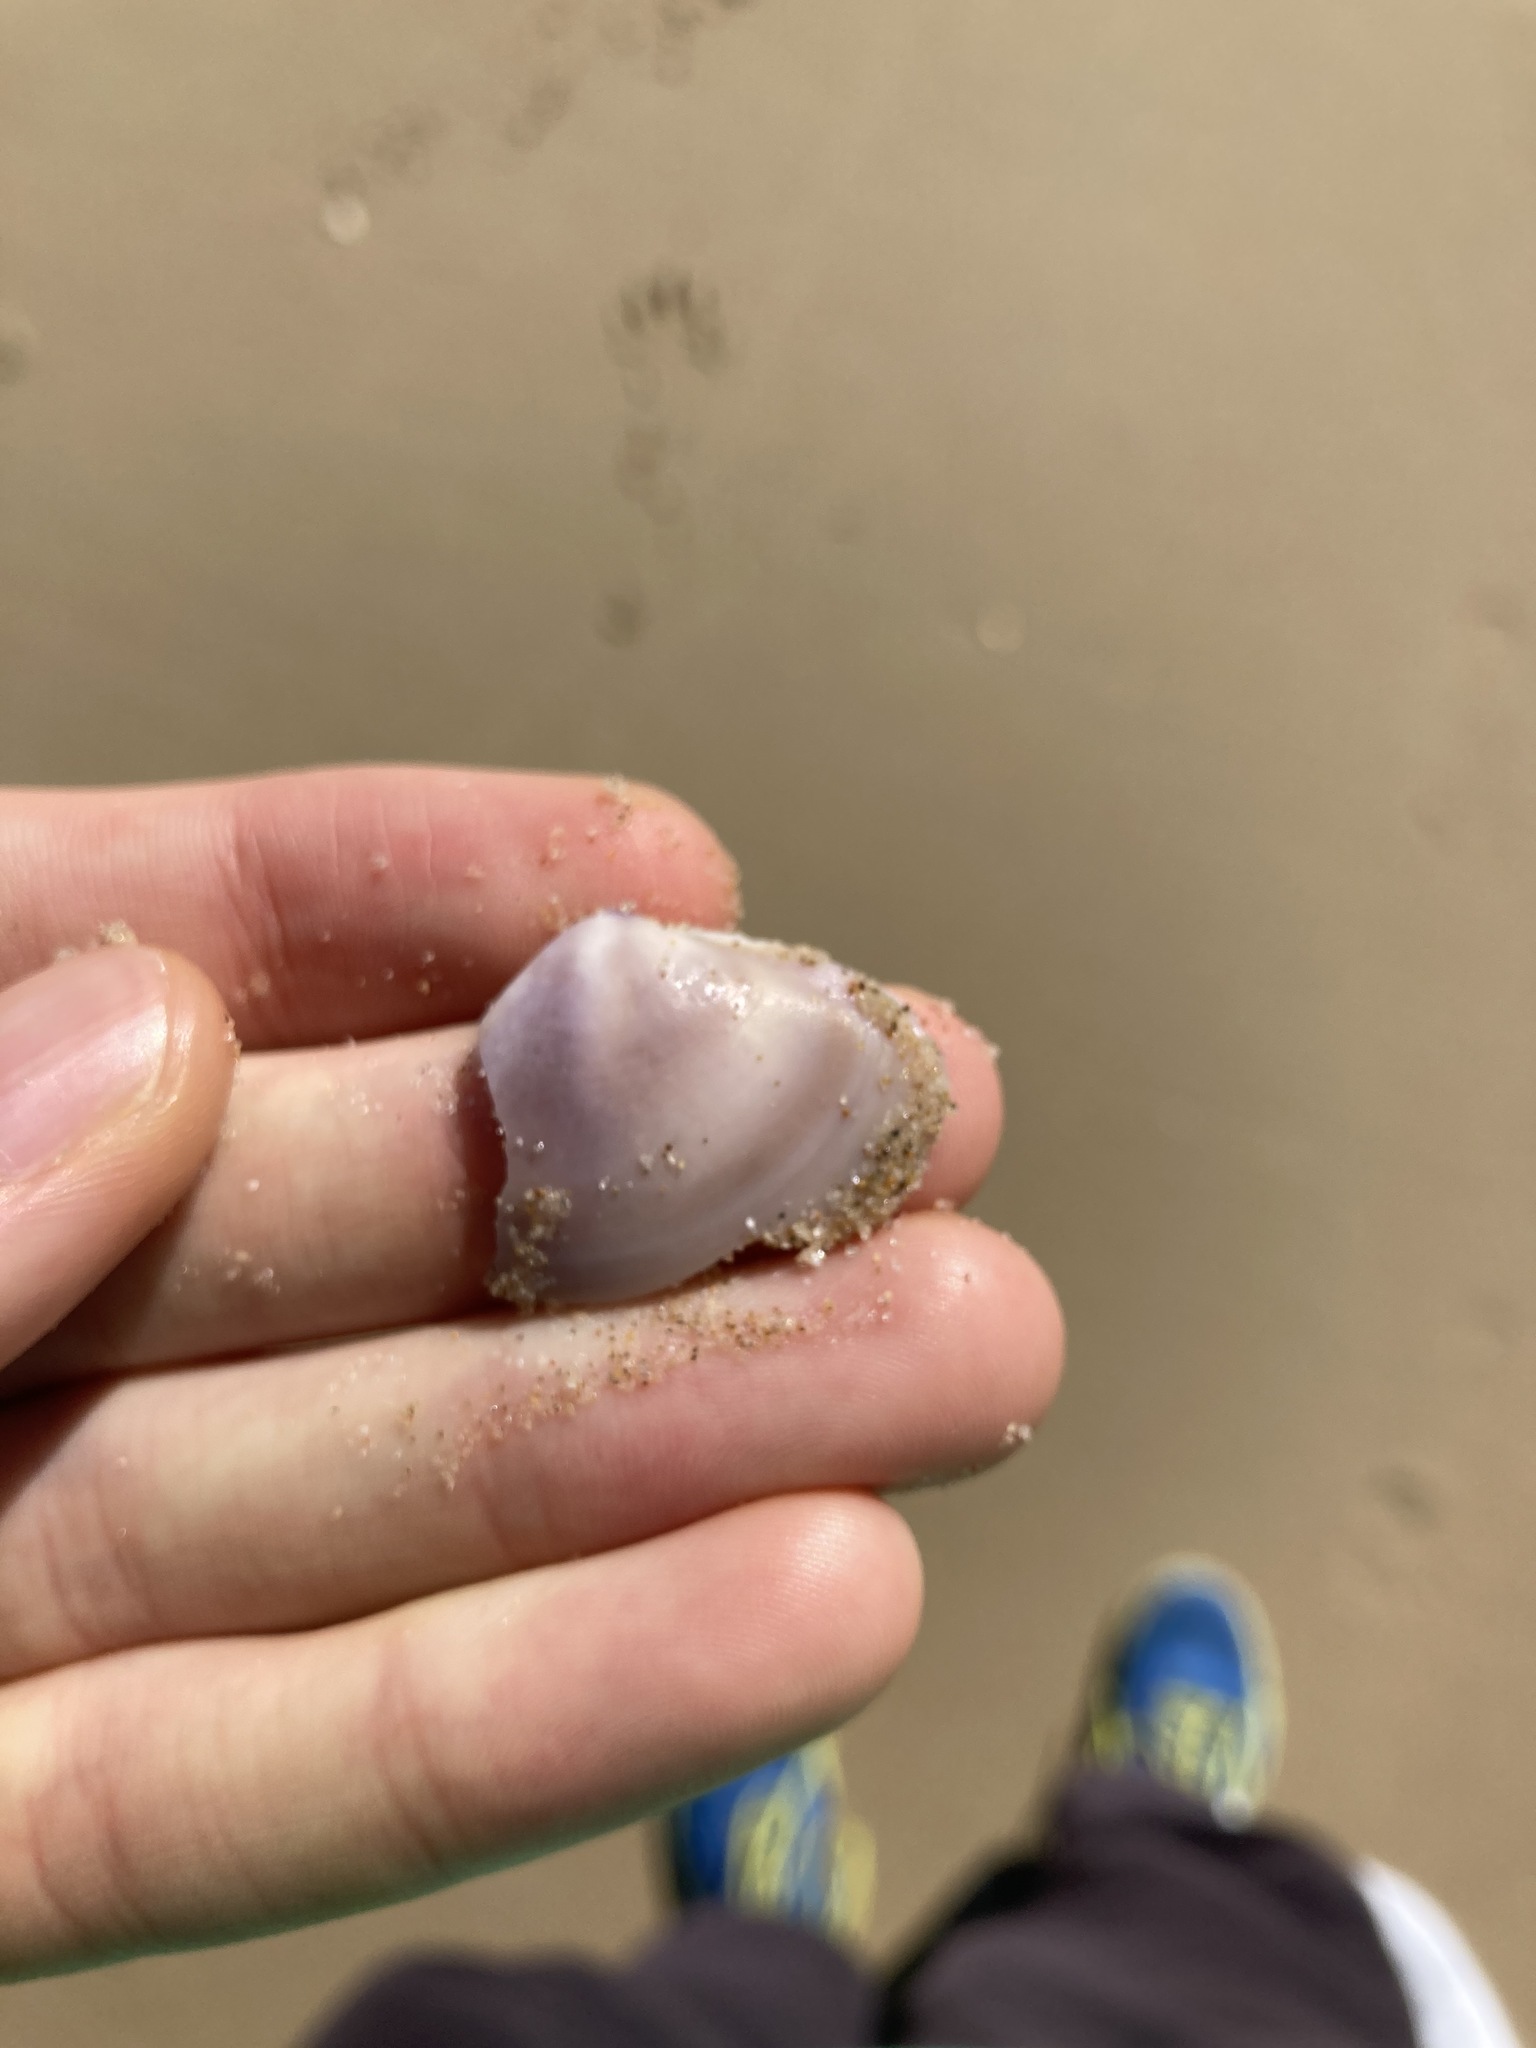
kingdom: Animalia
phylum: Mollusca
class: Bivalvia
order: Venerida
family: Mactridae
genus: Austromactra
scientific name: Austromactra contraria
